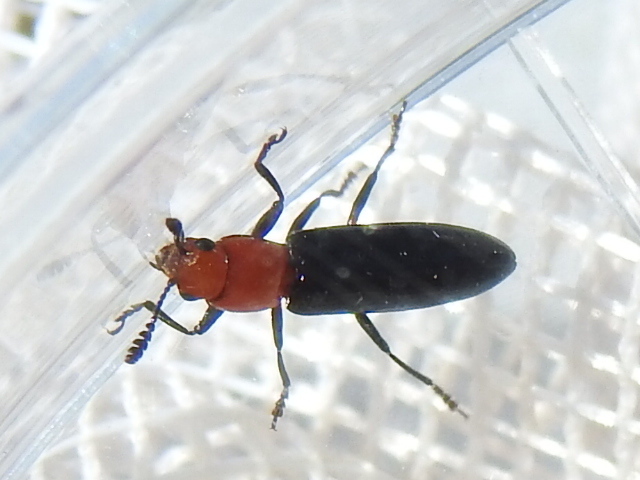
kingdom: Animalia
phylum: Arthropoda
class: Insecta
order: Coleoptera
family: Erotylidae
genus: Languria
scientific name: Languria mozardi
